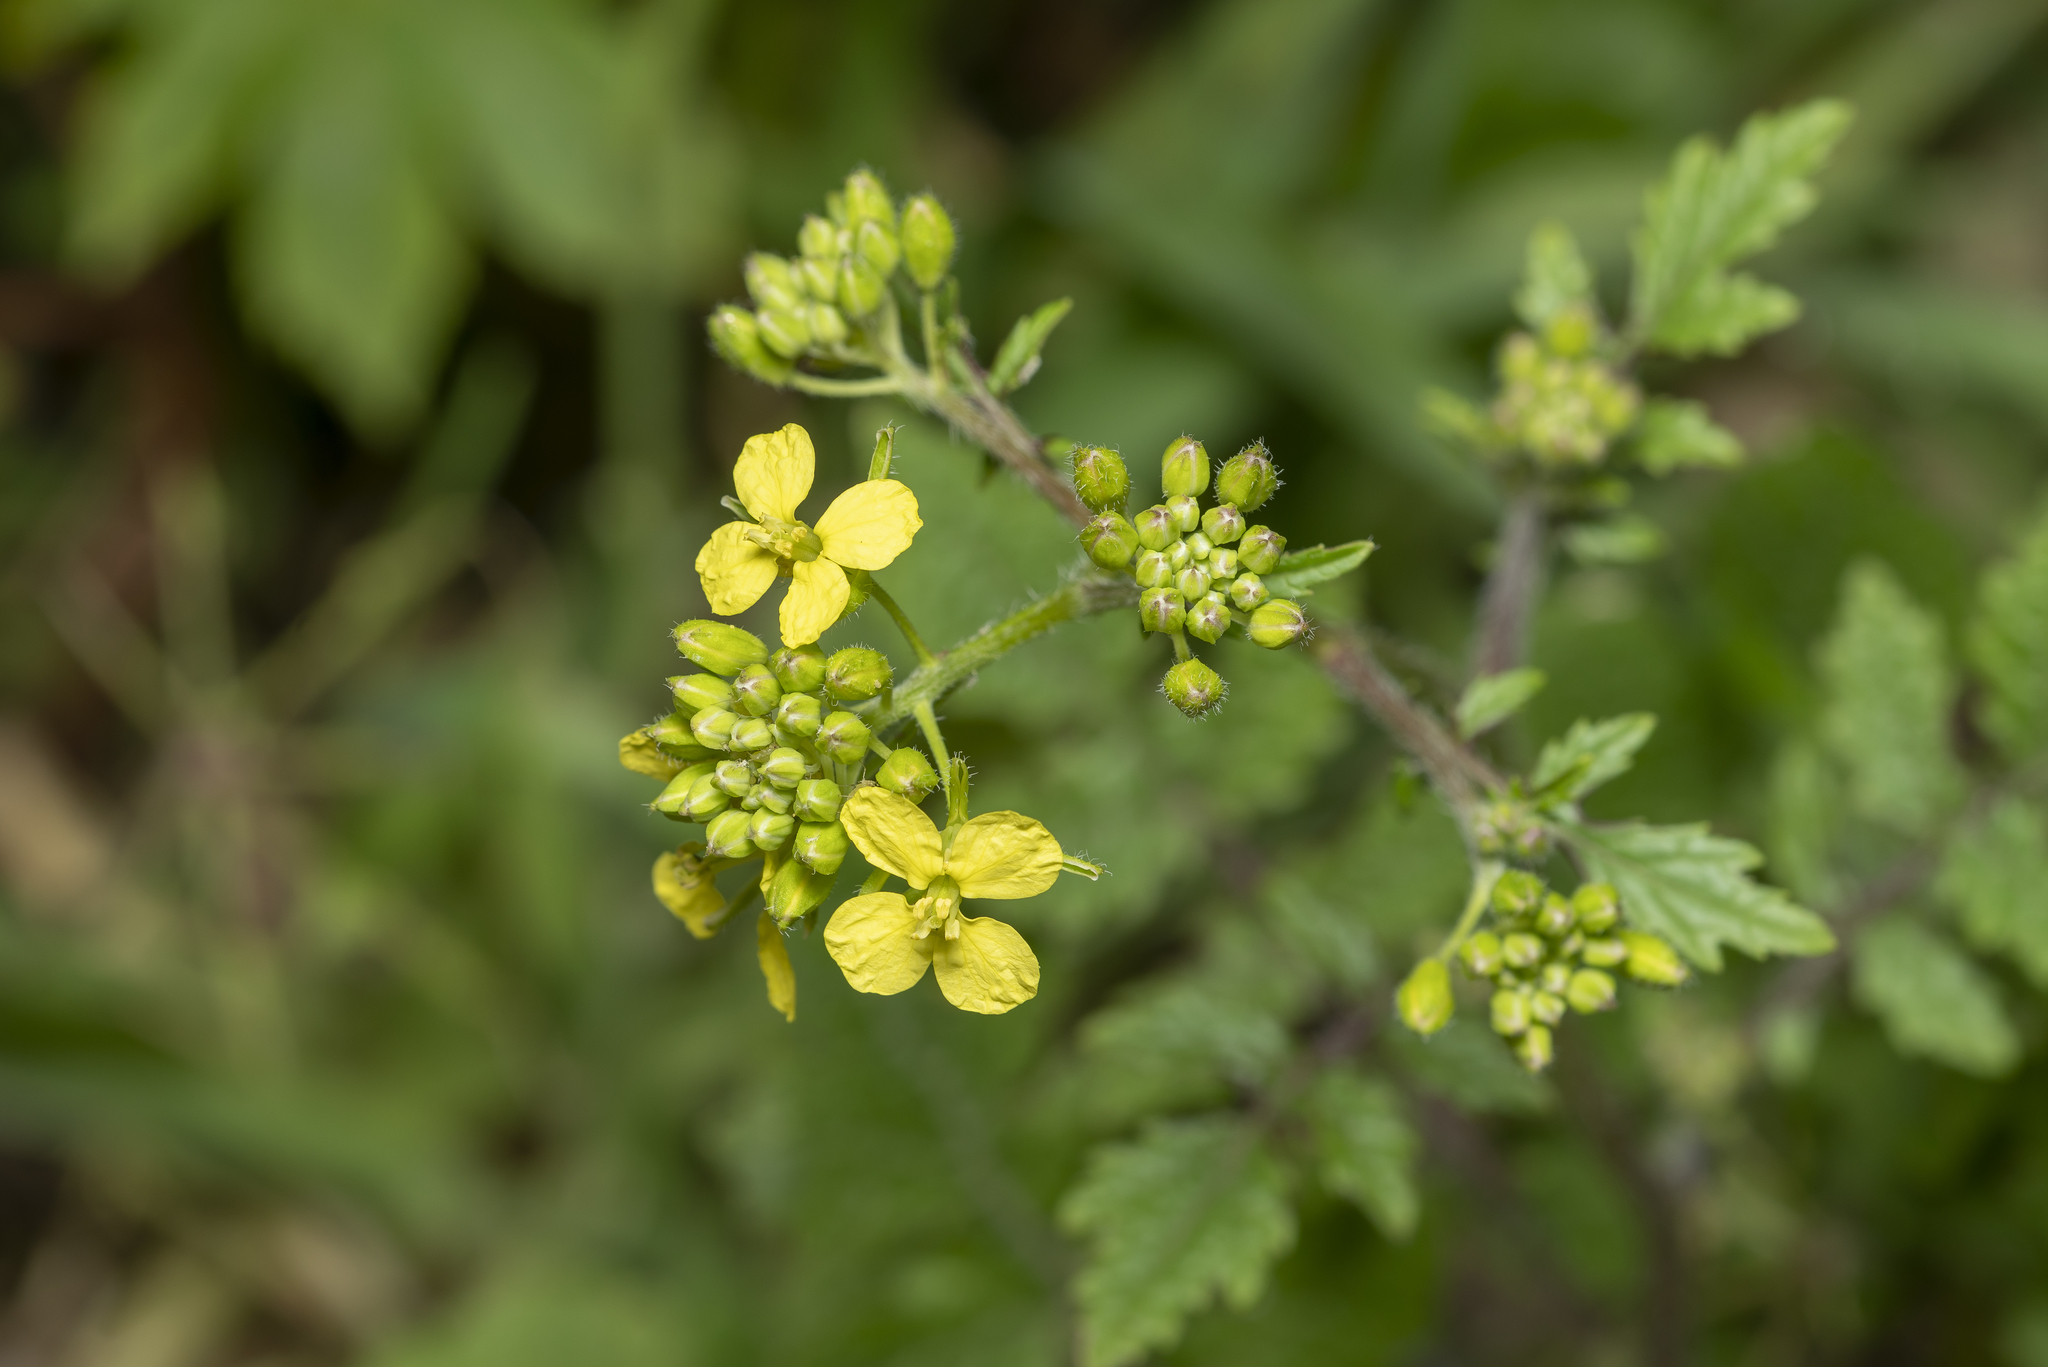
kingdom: Plantae
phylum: Tracheophyta
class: Magnoliopsida
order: Brassicales
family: Brassicaceae
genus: Sinapis
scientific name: Sinapis
